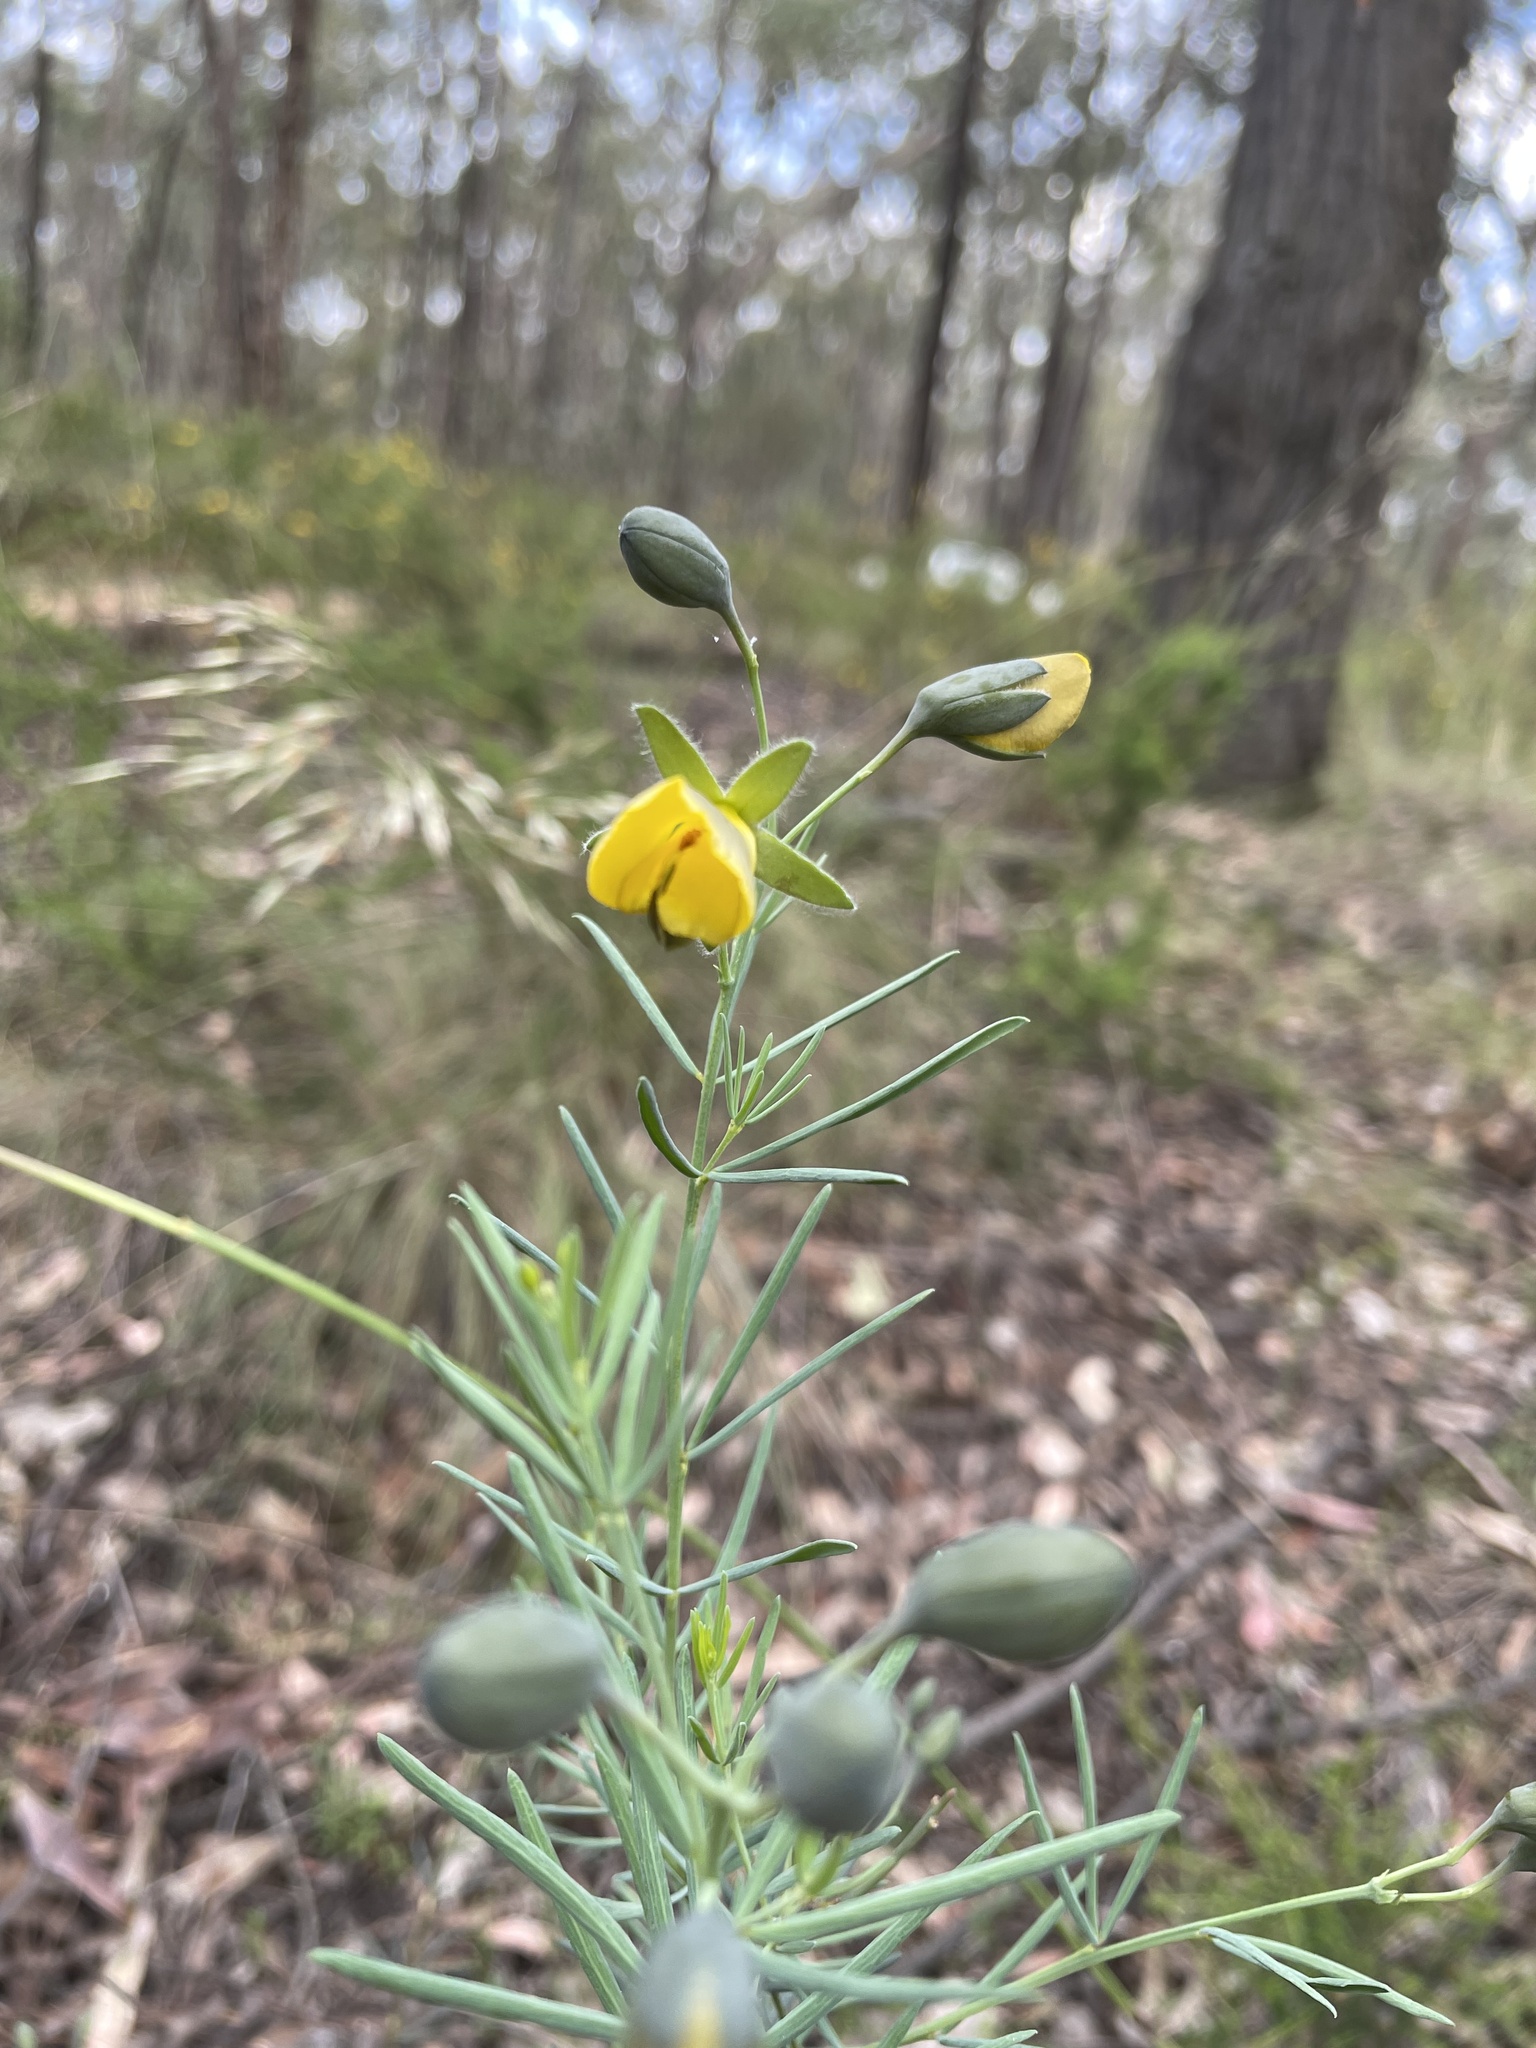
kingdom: Plantae
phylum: Tracheophyta
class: Magnoliopsida
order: Fabales
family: Fabaceae
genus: Gompholobium
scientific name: Gompholobium huegelii
